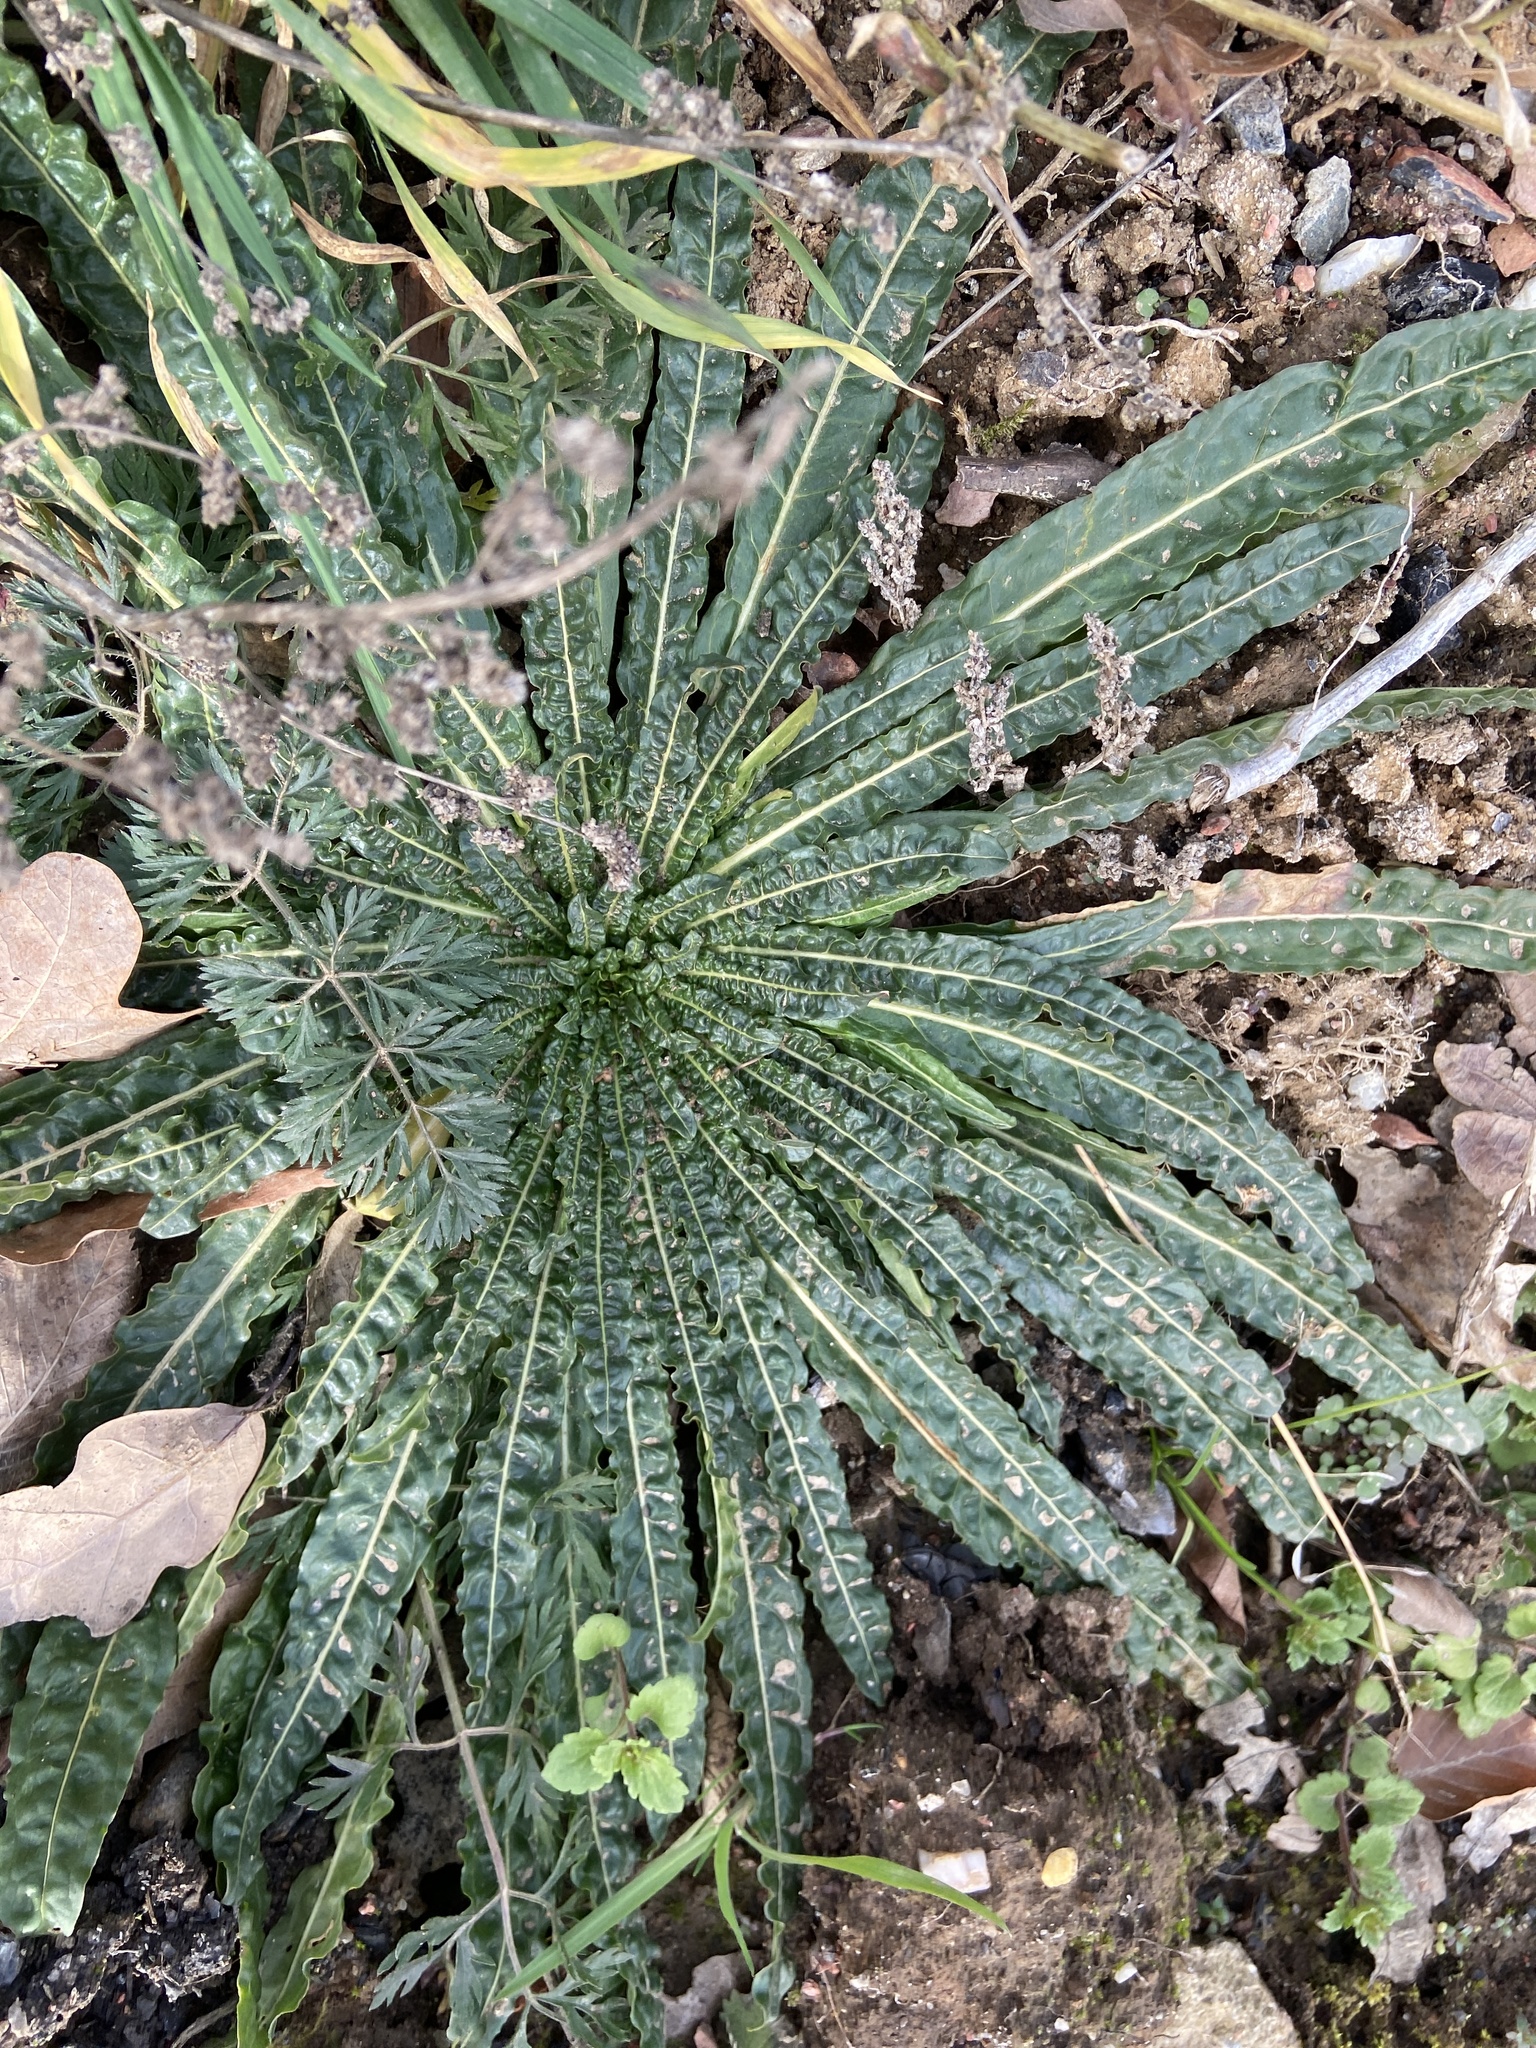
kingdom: Plantae
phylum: Tracheophyta
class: Magnoliopsida
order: Brassicales
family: Resedaceae
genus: Reseda
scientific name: Reseda luteola
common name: Weld
